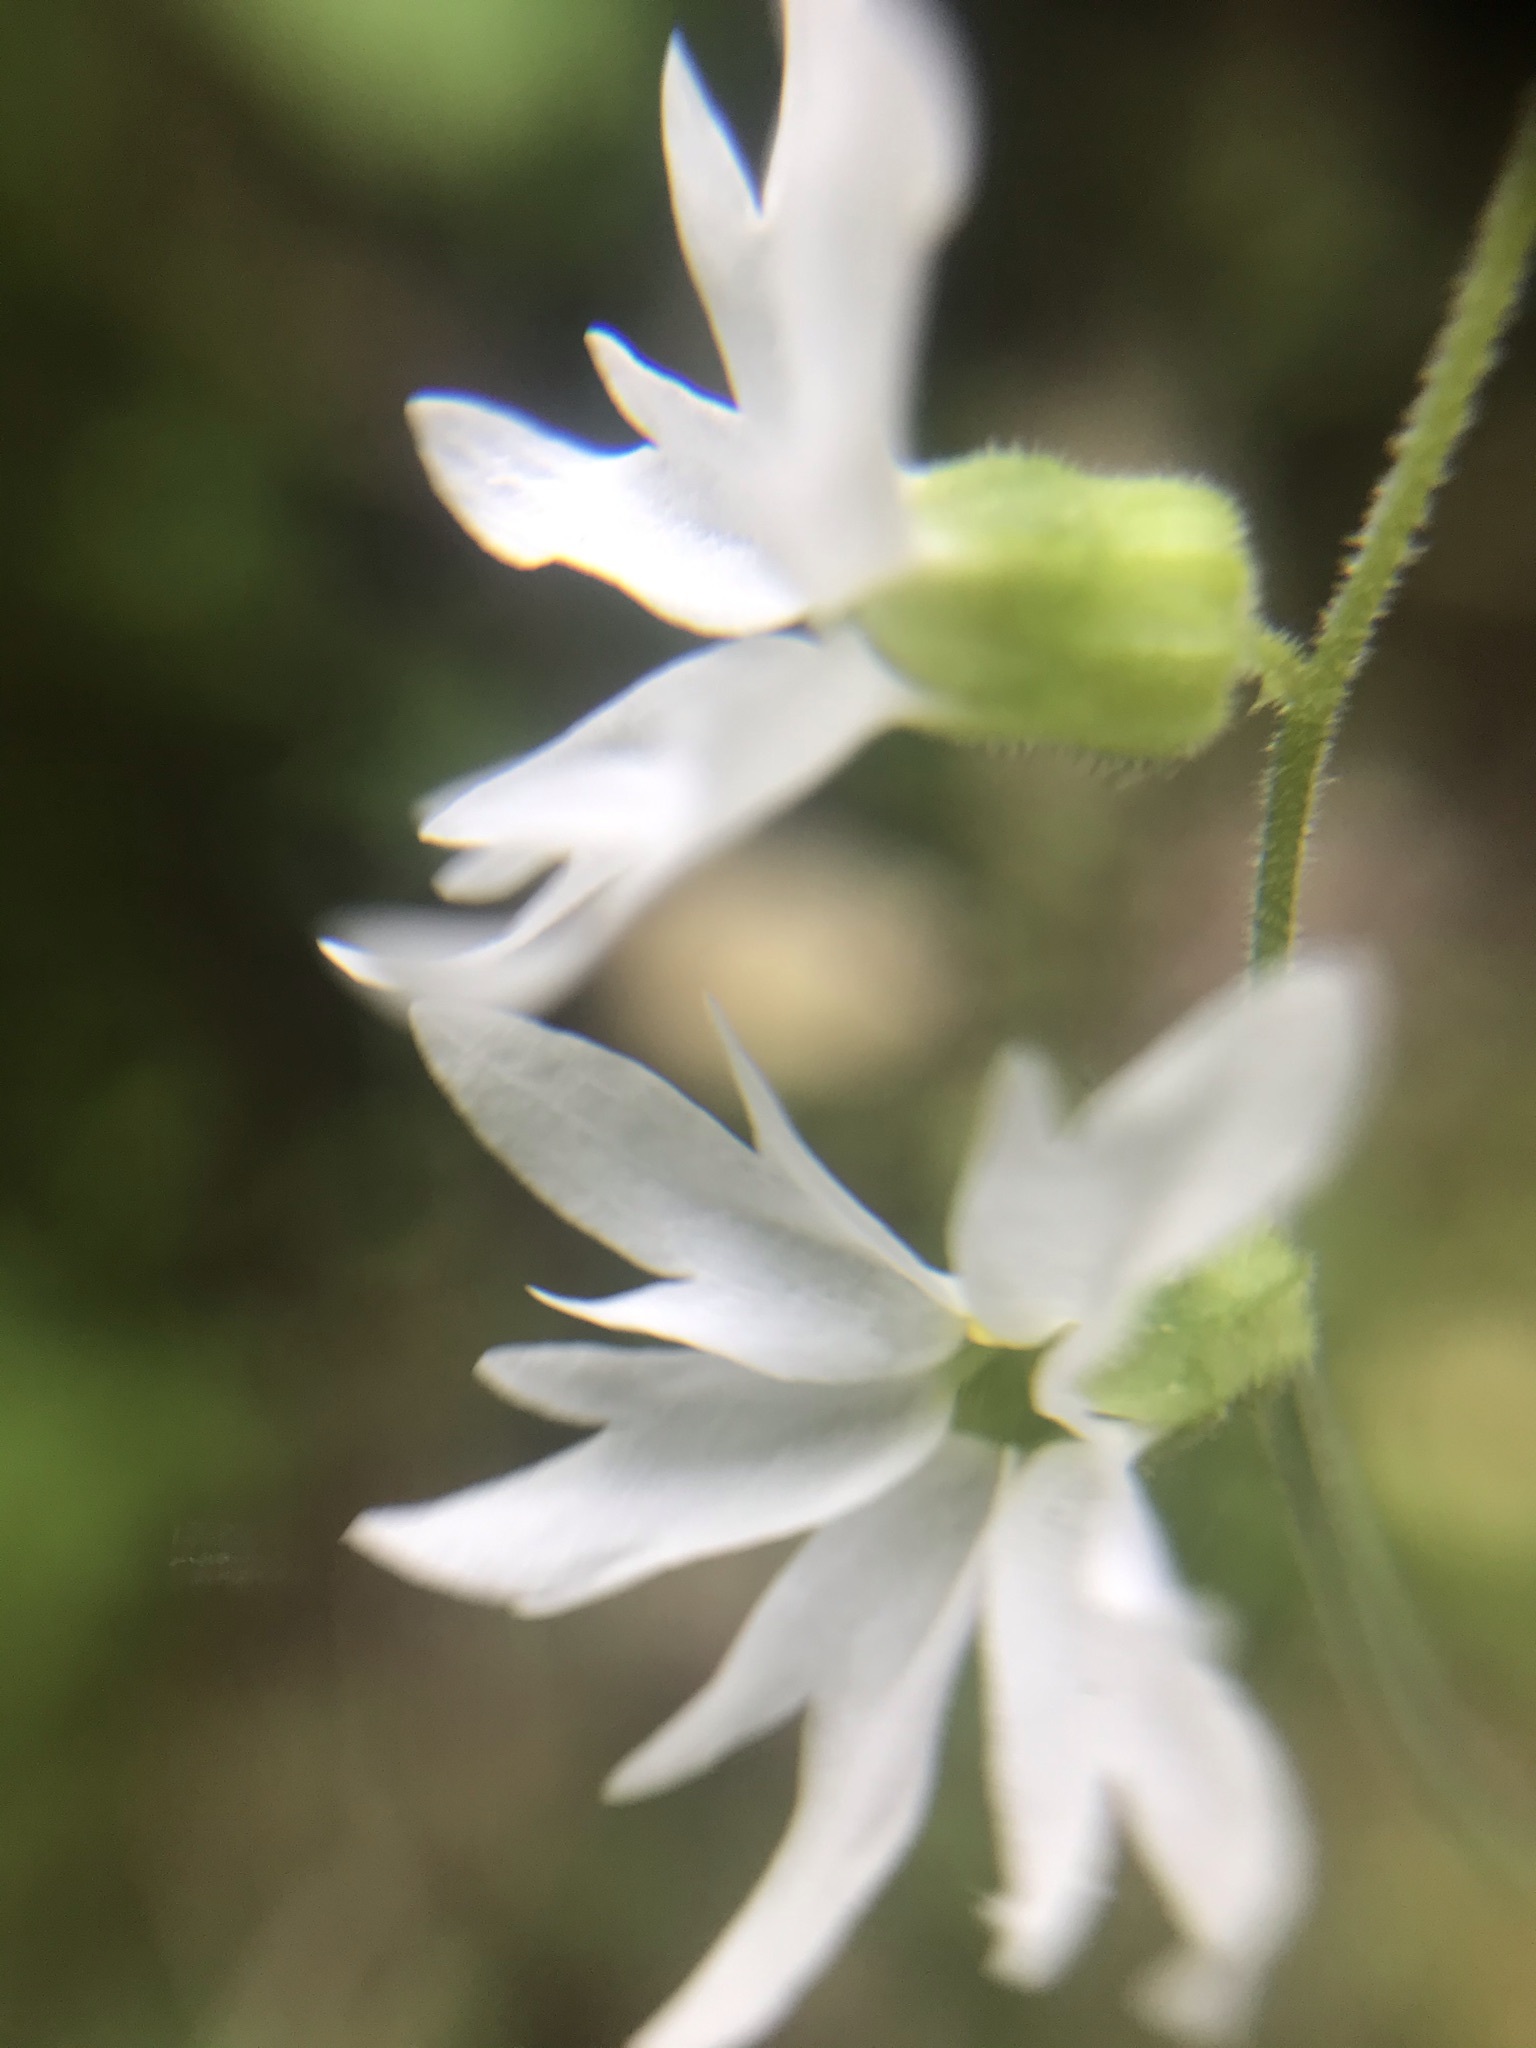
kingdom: Plantae
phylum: Tracheophyta
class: Magnoliopsida
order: Saxifragales
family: Saxifragaceae
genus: Lithophragma
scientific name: Lithophragma heterophyllum
